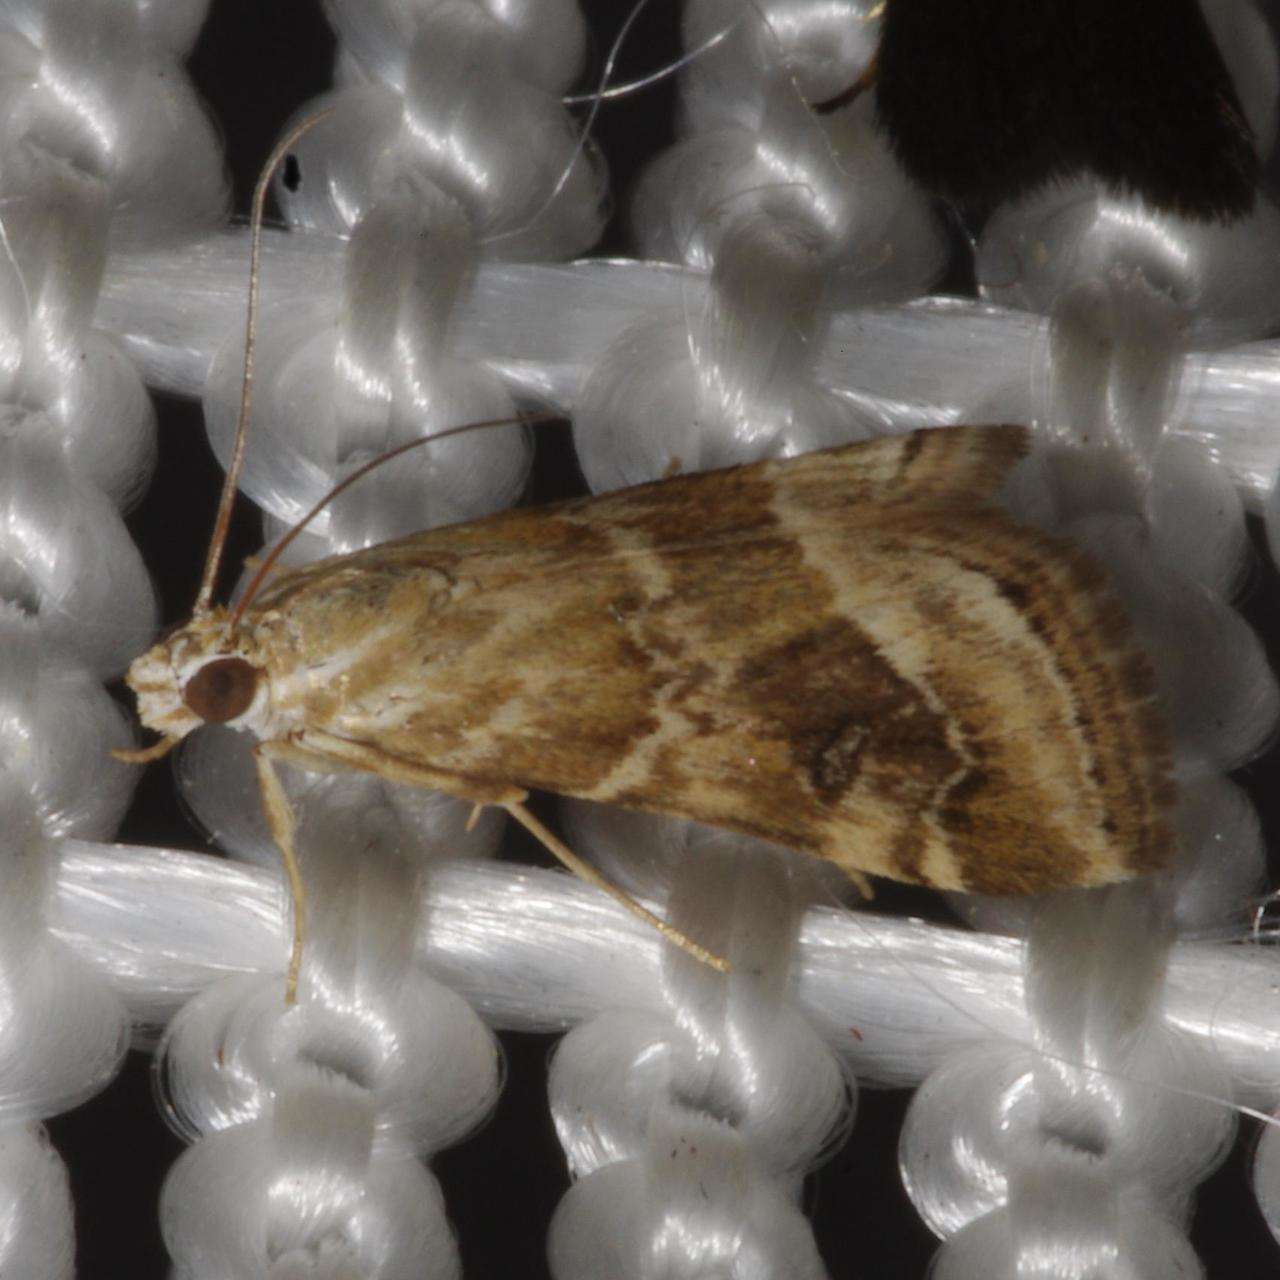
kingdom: Animalia
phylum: Arthropoda
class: Insecta
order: Lepidoptera
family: Crambidae
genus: Hellula
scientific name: Hellula hydralis
